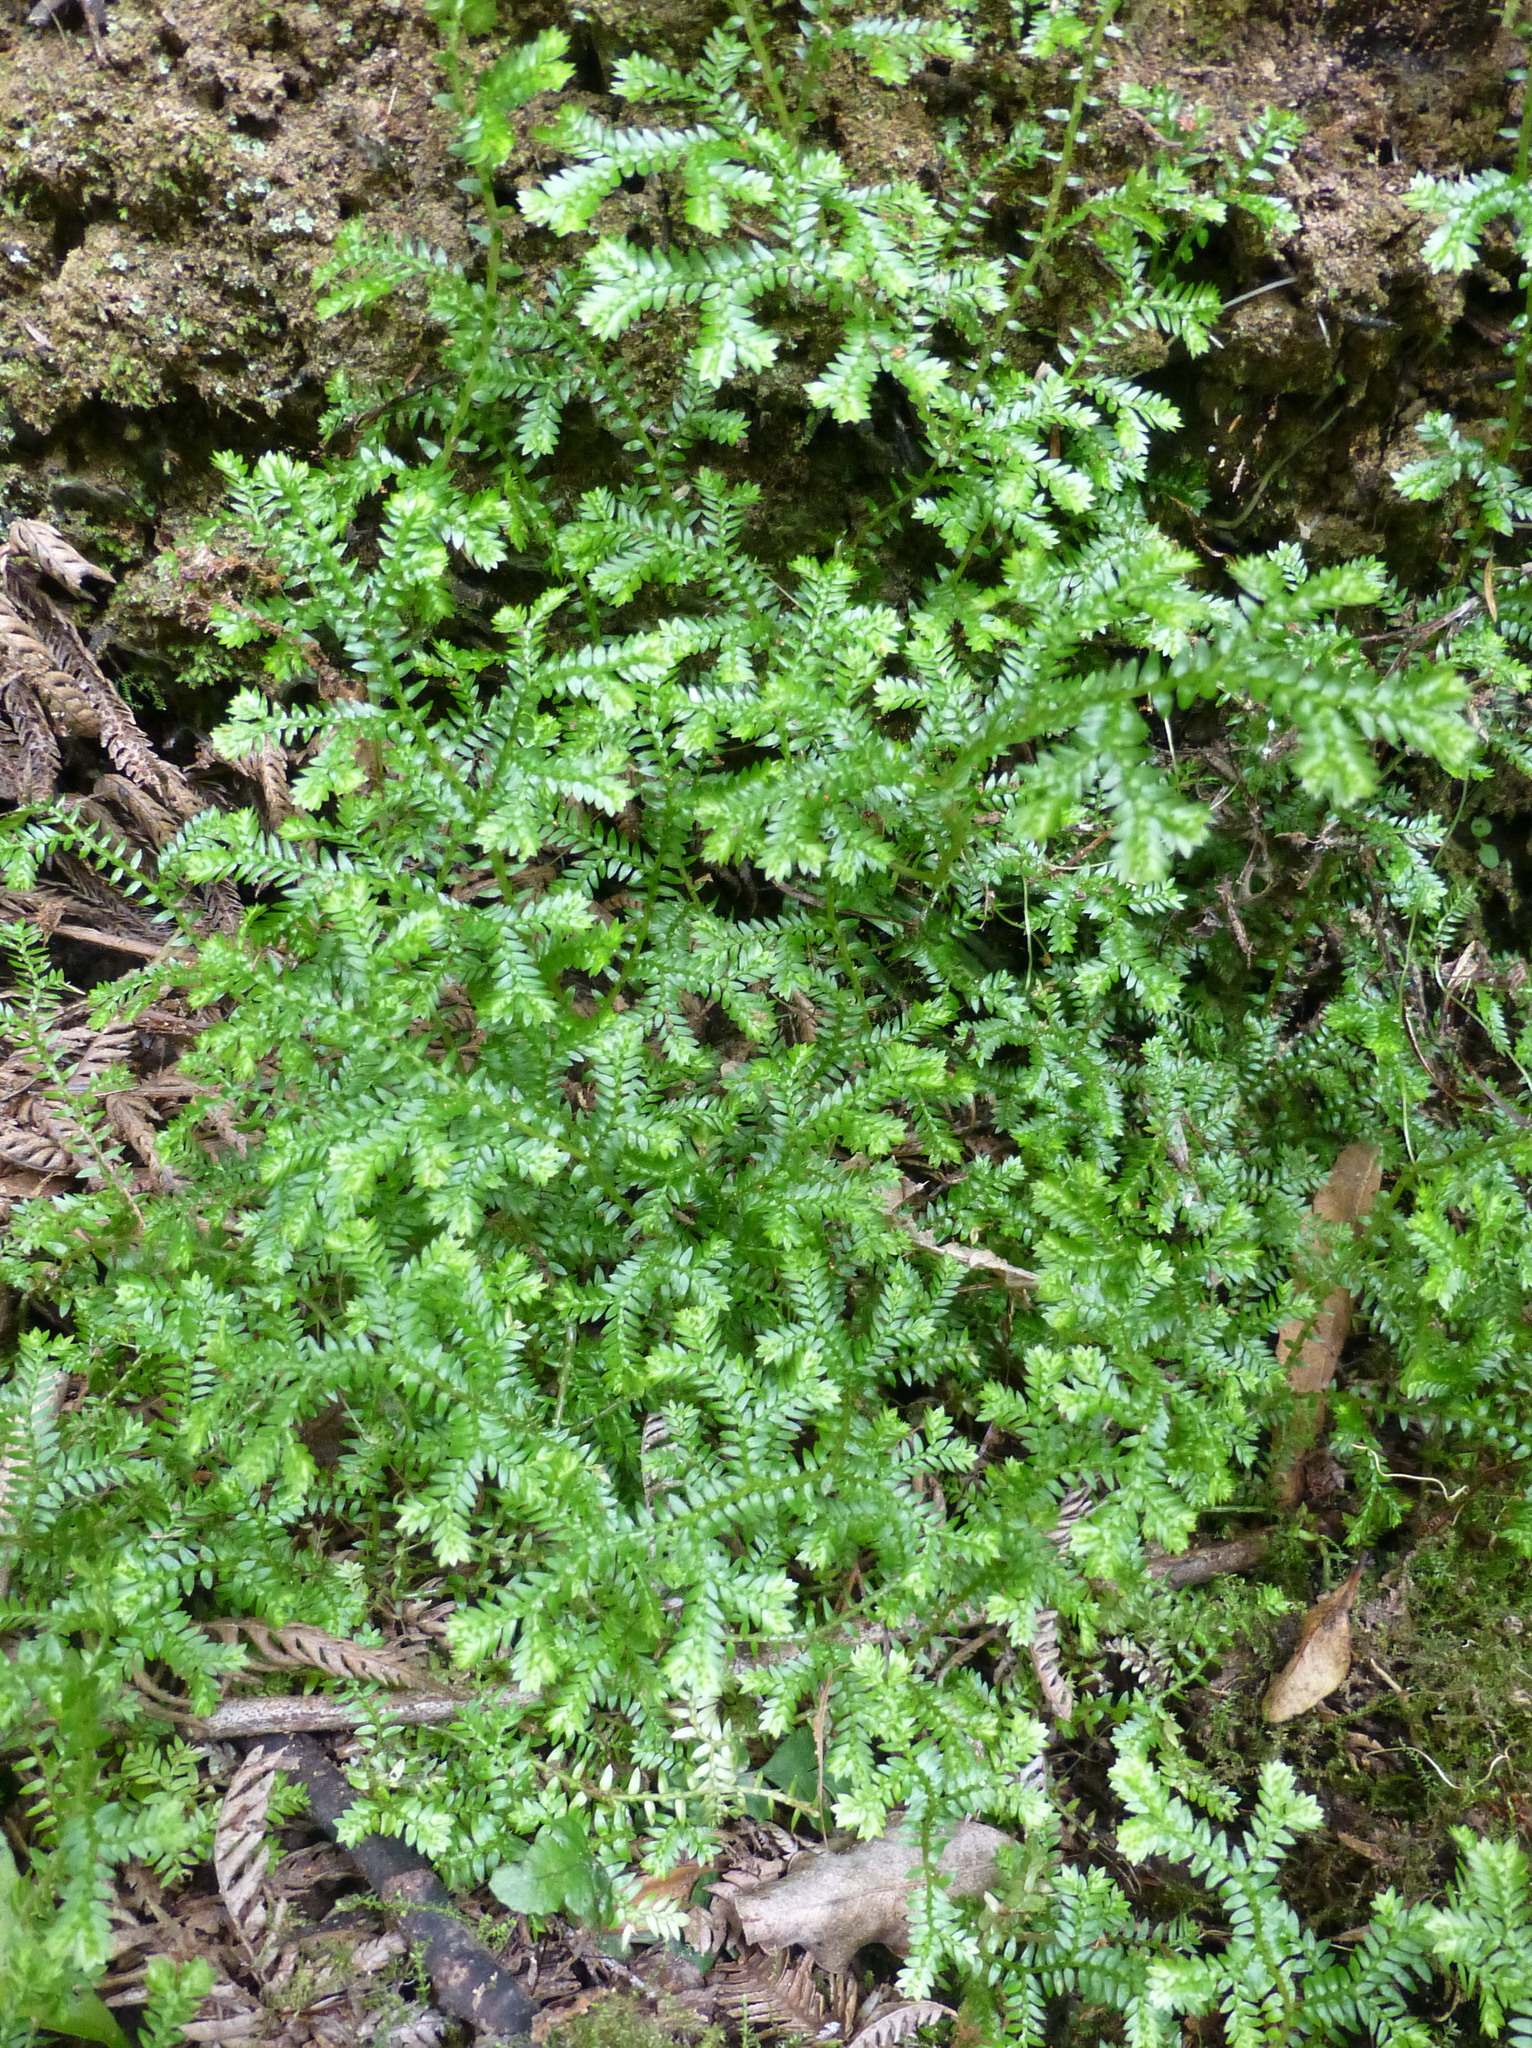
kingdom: Plantae
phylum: Tracheophyta
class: Lycopodiopsida
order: Selaginellales
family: Selaginellaceae
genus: Selaginella
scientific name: Selaginella kraussiana
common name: Krauss' spikemoss
